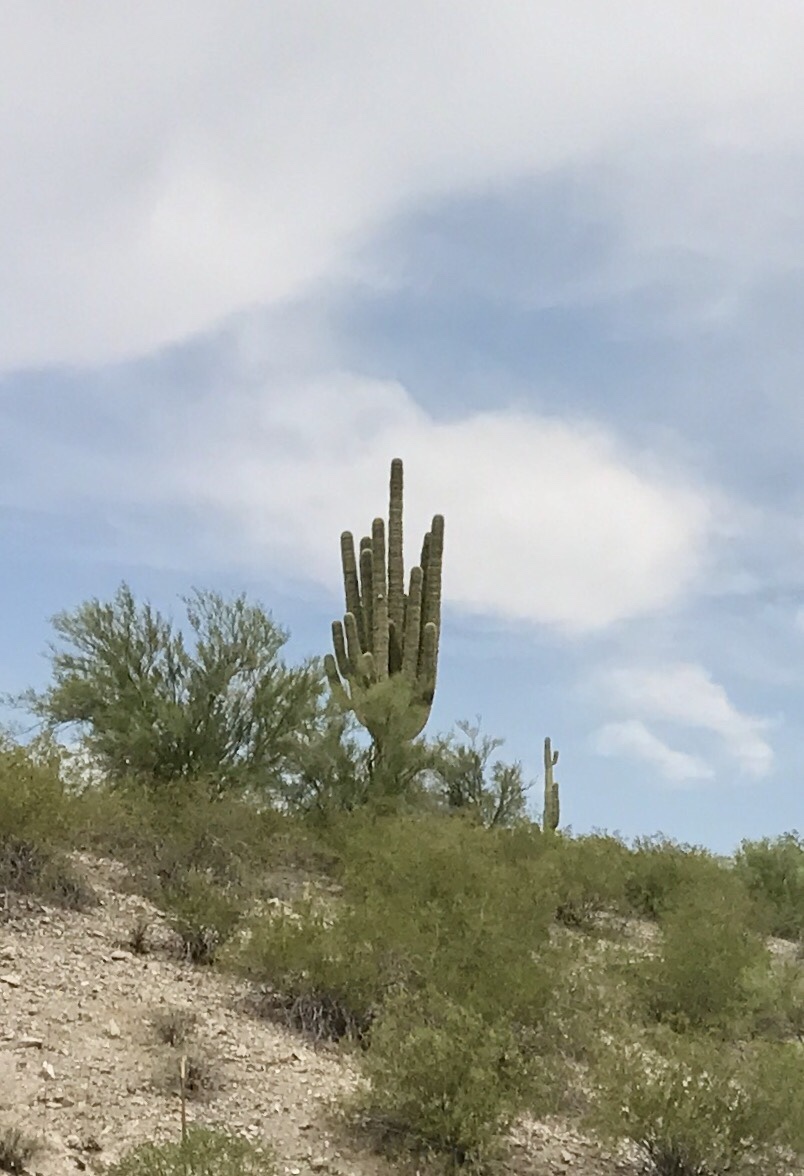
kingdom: Plantae
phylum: Tracheophyta
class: Magnoliopsida
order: Caryophyllales
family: Cactaceae
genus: Carnegiea
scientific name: Carnegiea gigantea
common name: Saguaro
